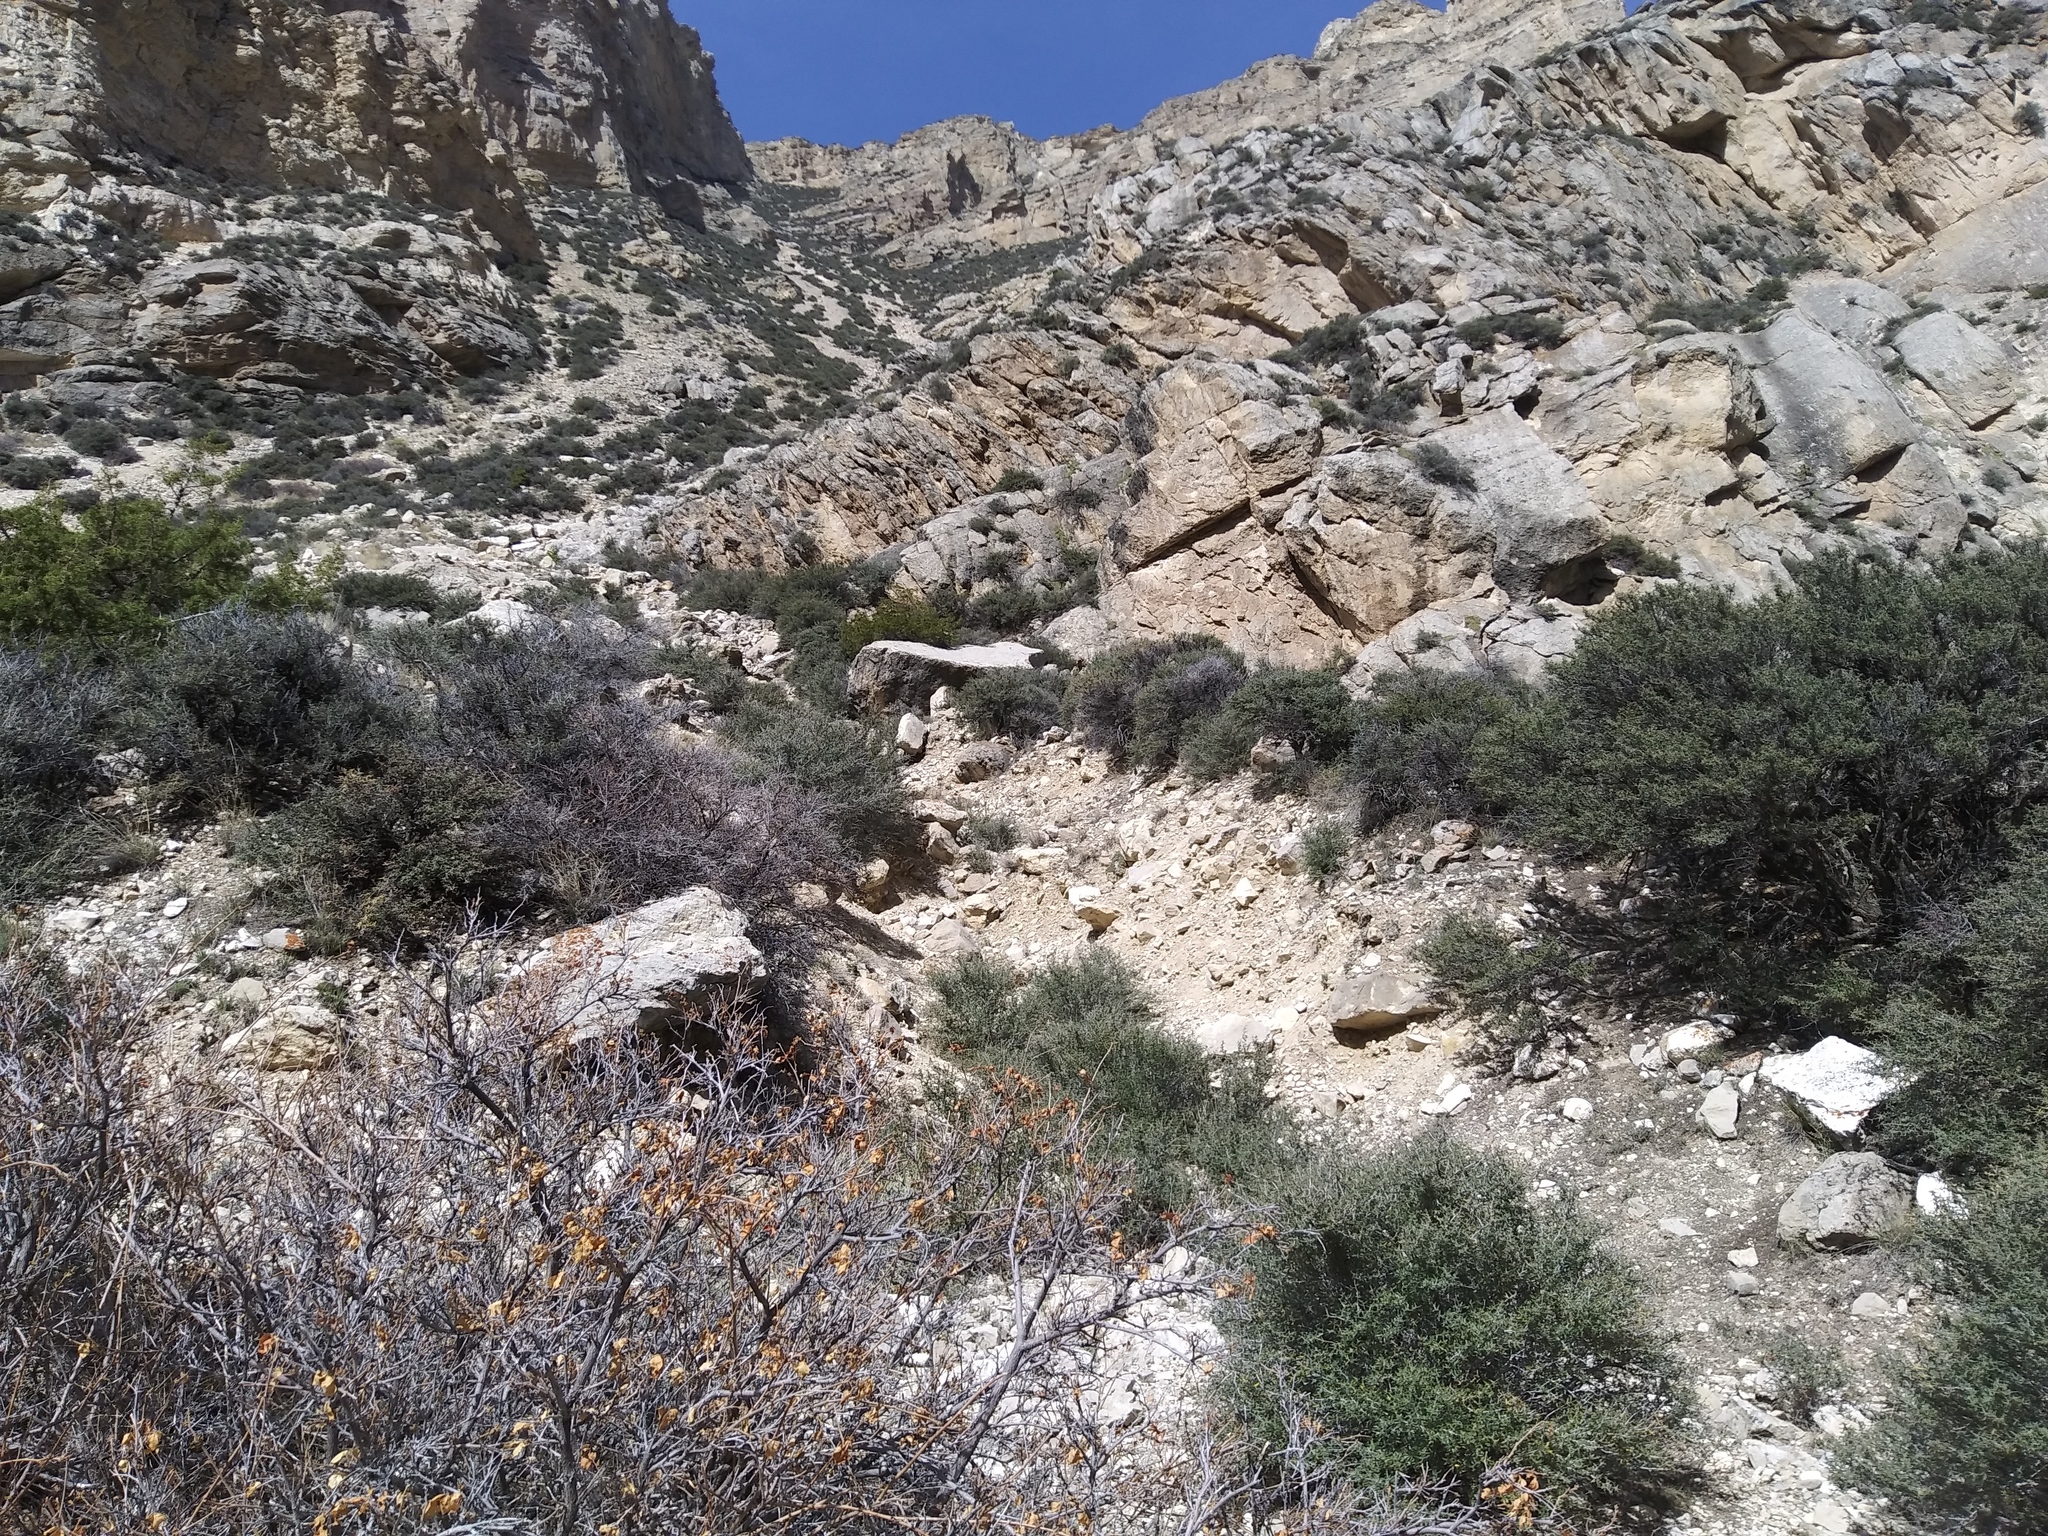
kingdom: Plantae
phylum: Tracheophyta
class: Magnoliopsida
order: Rosales
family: Rosaceae
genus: Cercocarpus
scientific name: Cercocarpus ledifolius
